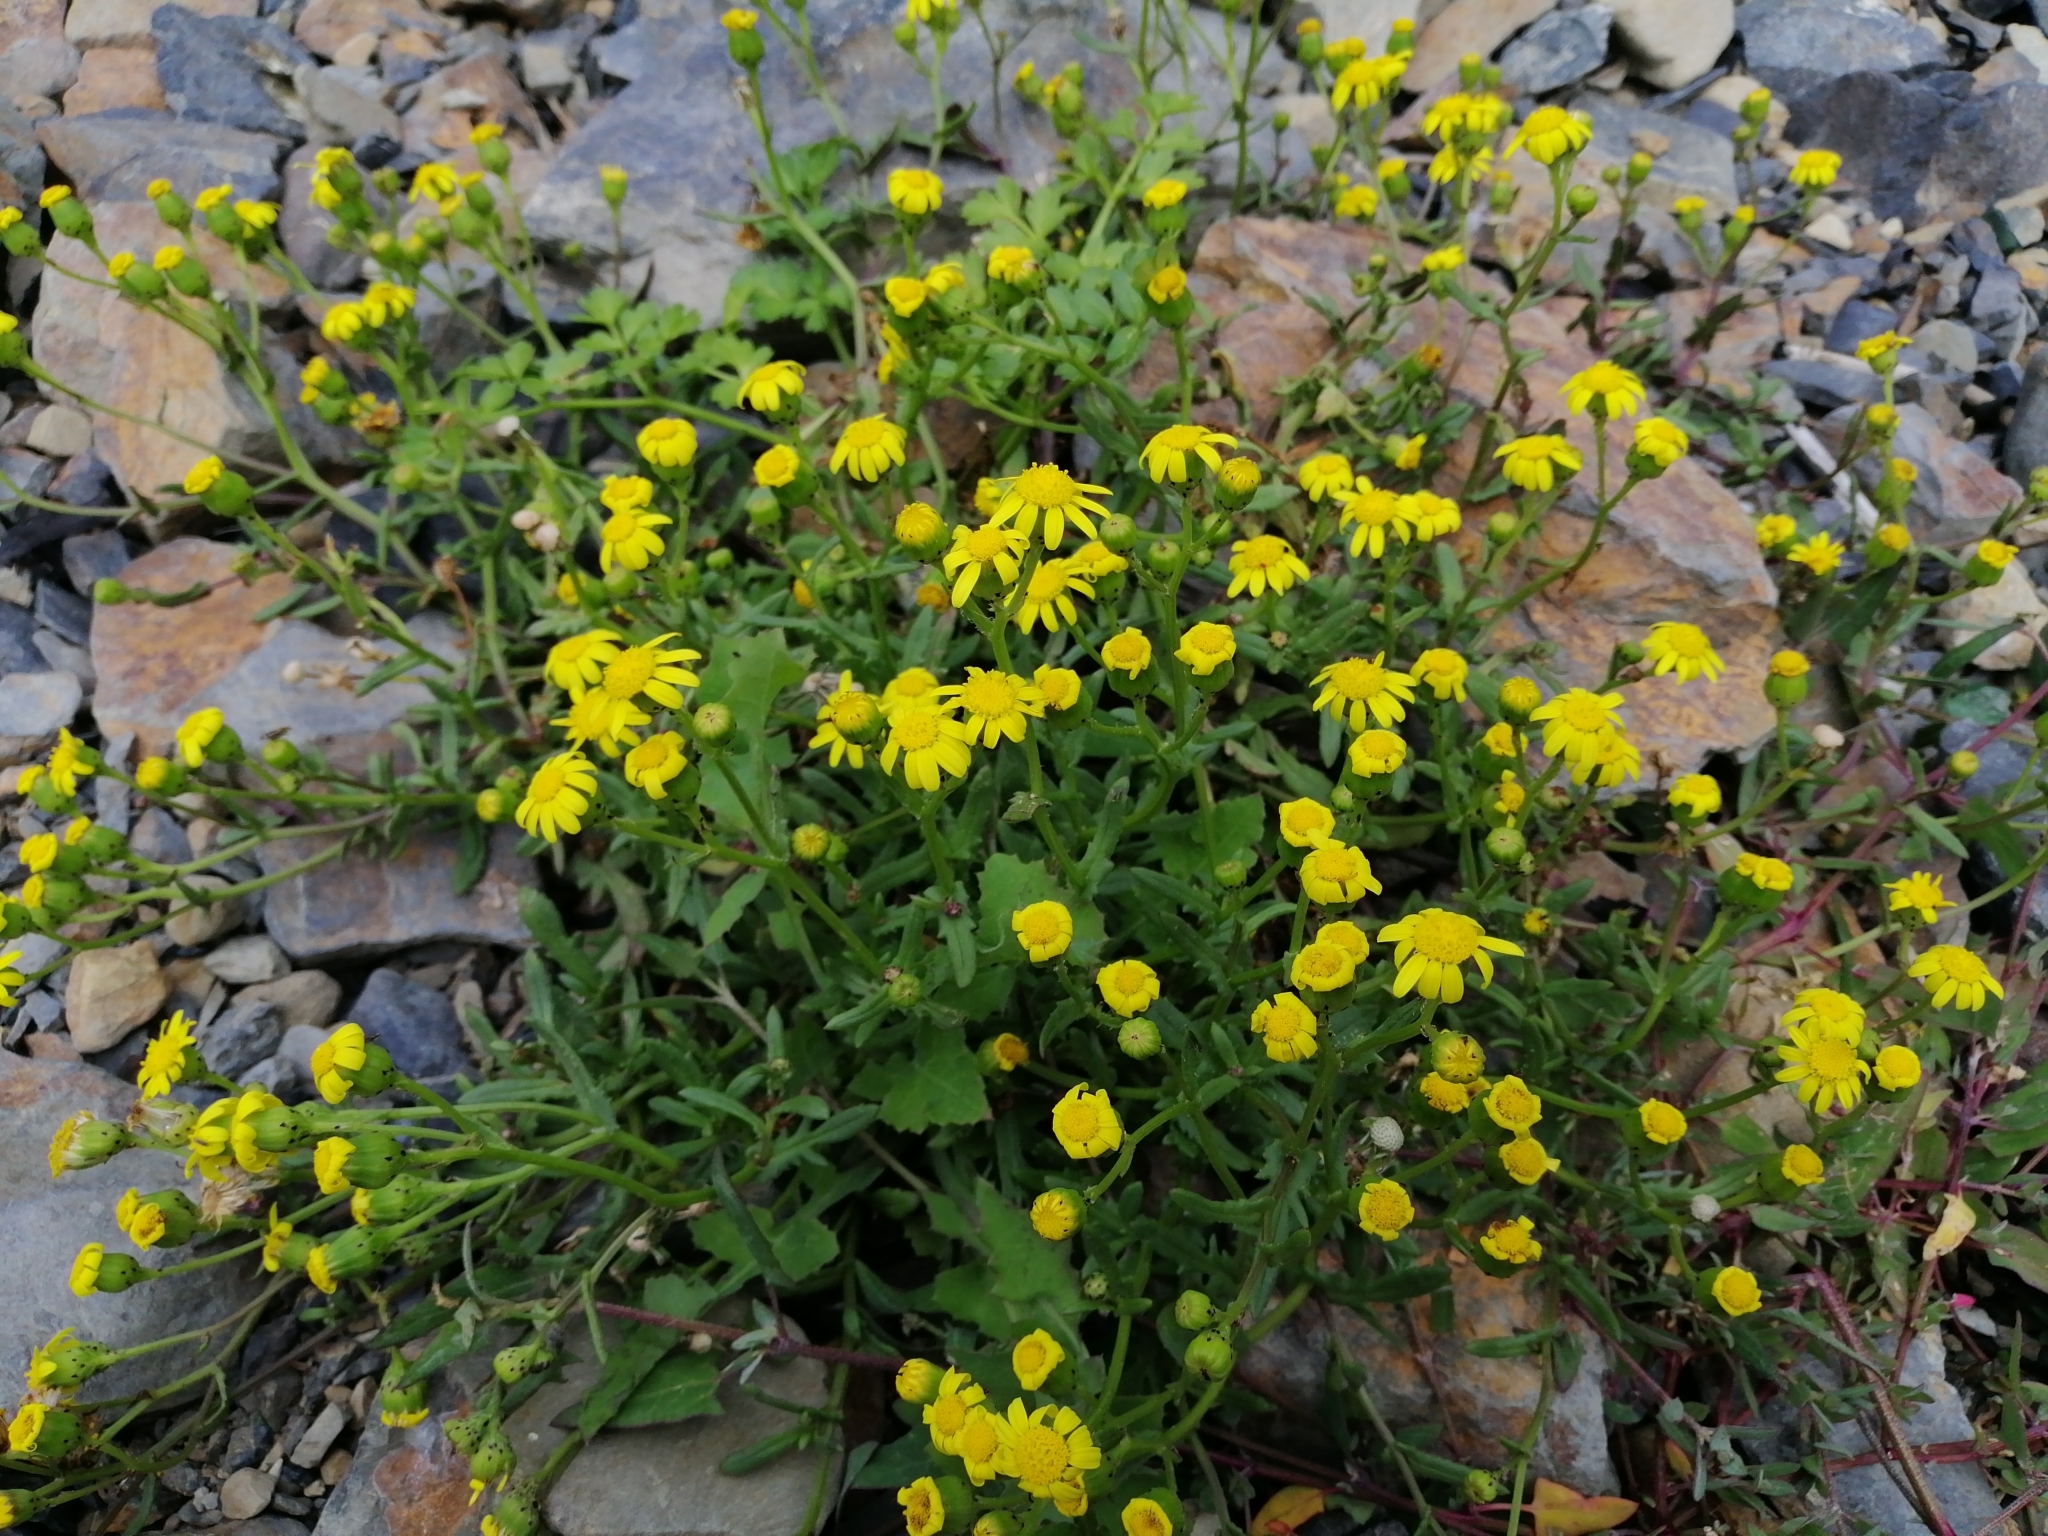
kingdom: Plantae
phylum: Tracheophyta
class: Magnoliopsida
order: Asterales
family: Asteraceae
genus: Senecio
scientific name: Senecio lautus
